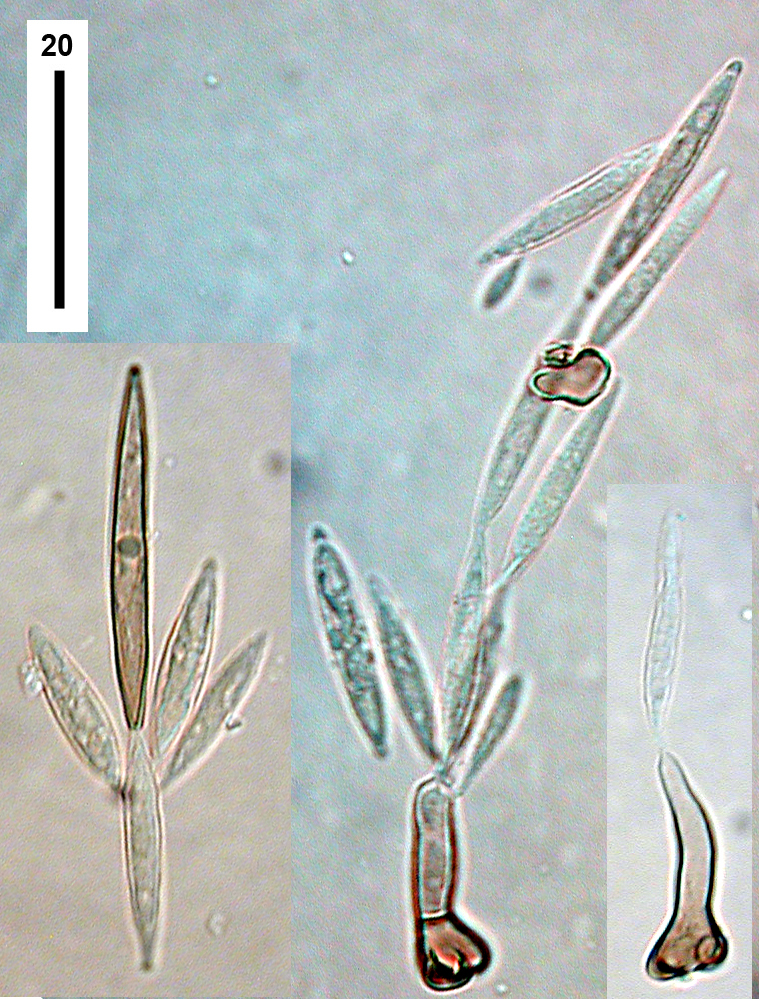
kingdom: Fungi
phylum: Ascomycota
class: Sordariomycetes
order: Xylariales
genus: Pseudosubramaniomyces
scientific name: Pseudosubramaniomyces fusisaprophyticus
